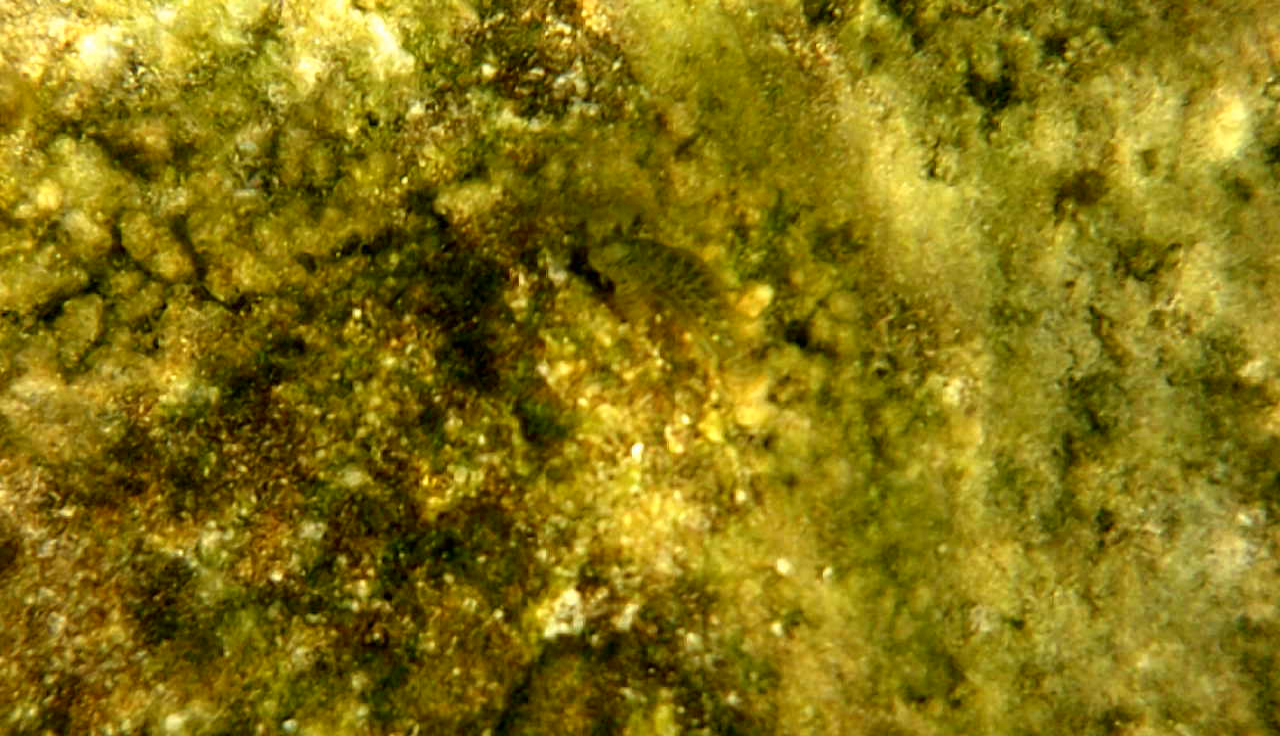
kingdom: Animalia
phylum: Chordata
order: Perciformes
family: Blenniidae
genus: Parablennius
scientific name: Parablennius sanguinolentus
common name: Black sea blenny
